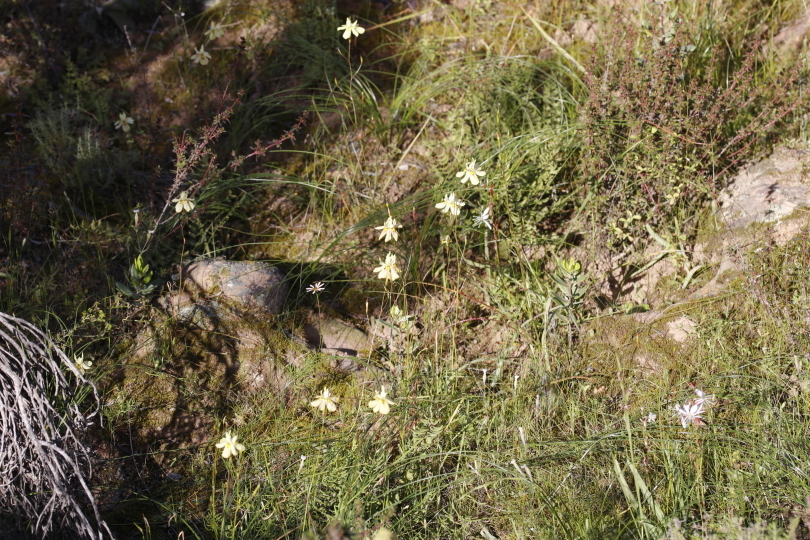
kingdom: Plantae
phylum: Tracheophyta
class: Liliopsida
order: Asparagales
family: Iridaceae
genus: Moraea
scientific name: Moraea gawleri
